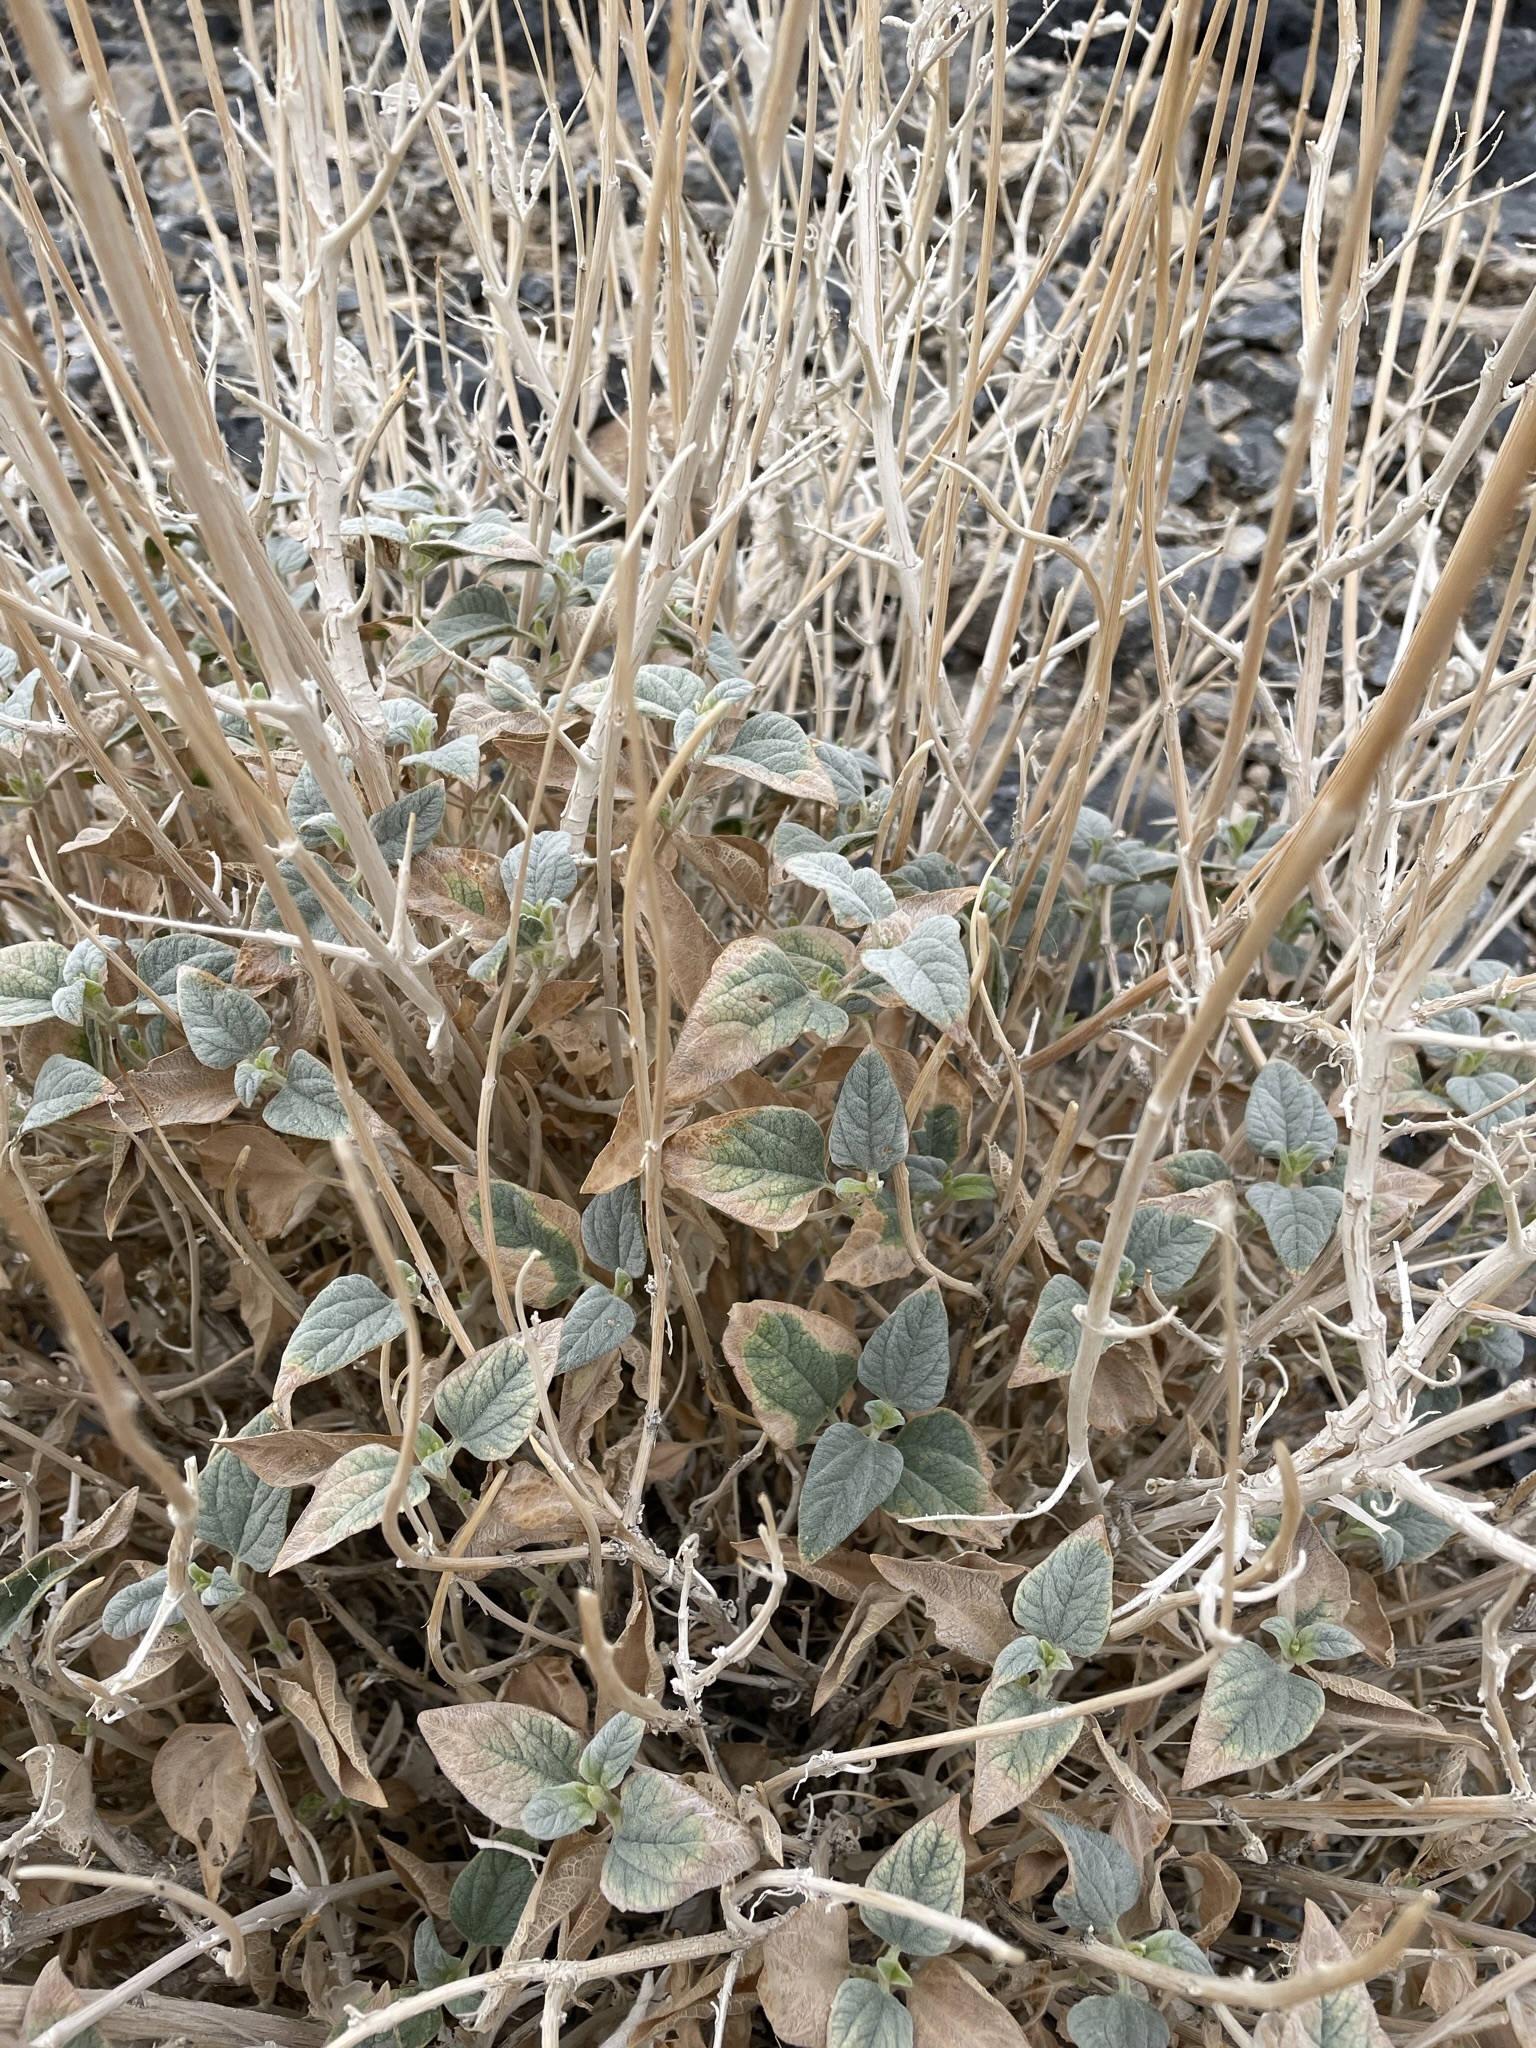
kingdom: Plantae
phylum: Tracheophyta
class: Magnoliopsida
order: Asterales
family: Asteraceae
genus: Bahiopsis
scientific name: Bahiopsis reticulata
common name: Death valley goldeneye
